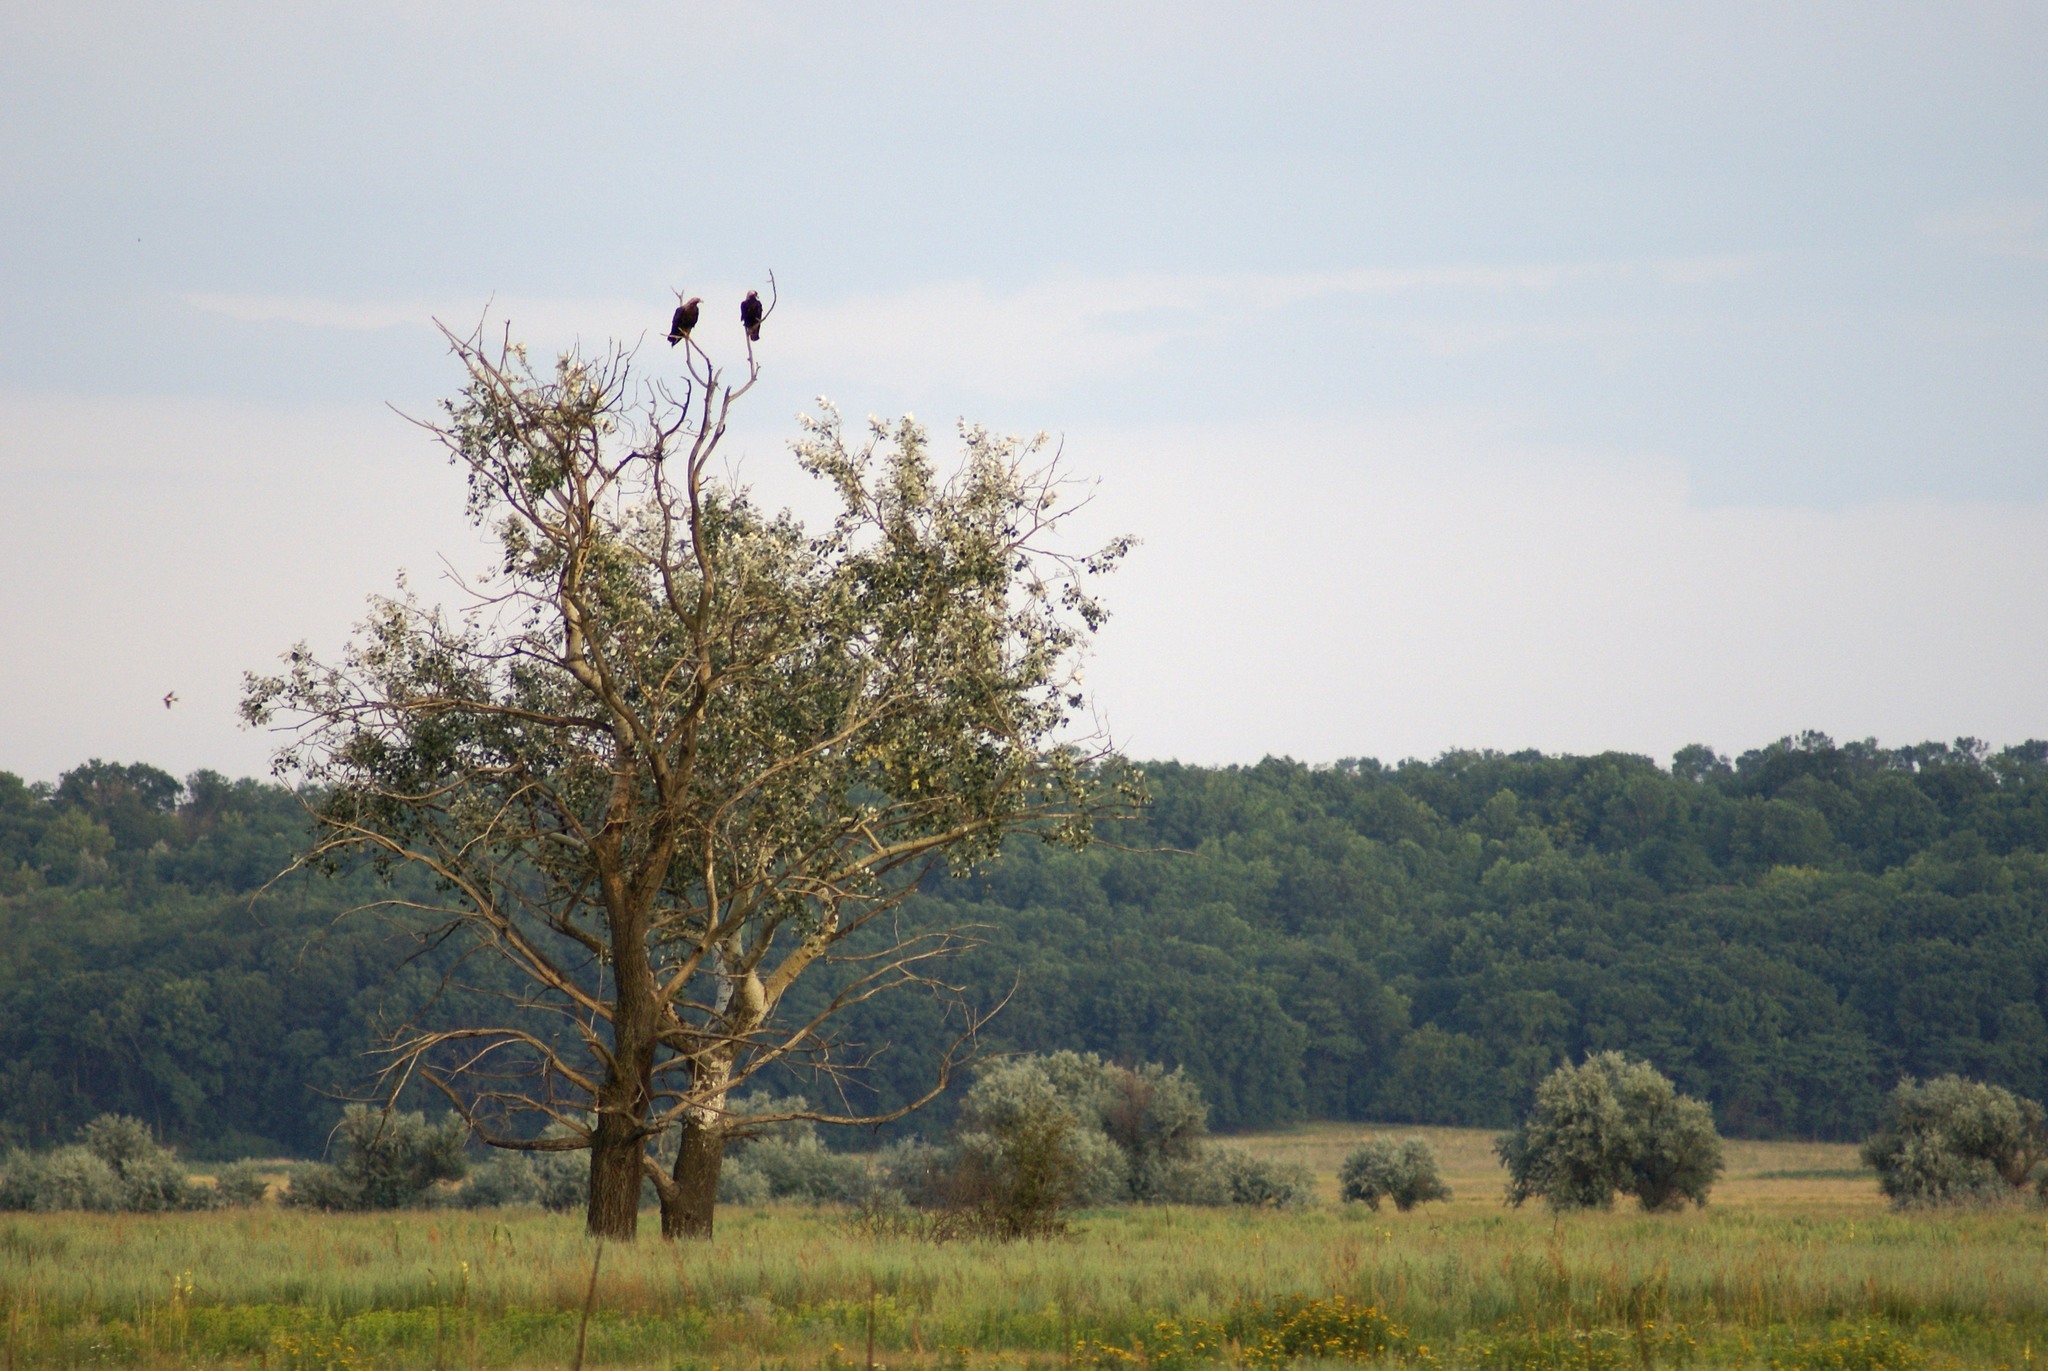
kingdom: Animalia
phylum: Chordata
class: Aves
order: Accipitriformes
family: Accipitridae
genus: Aquila
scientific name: Aquila heliaca
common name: Eastern imperial eagle
